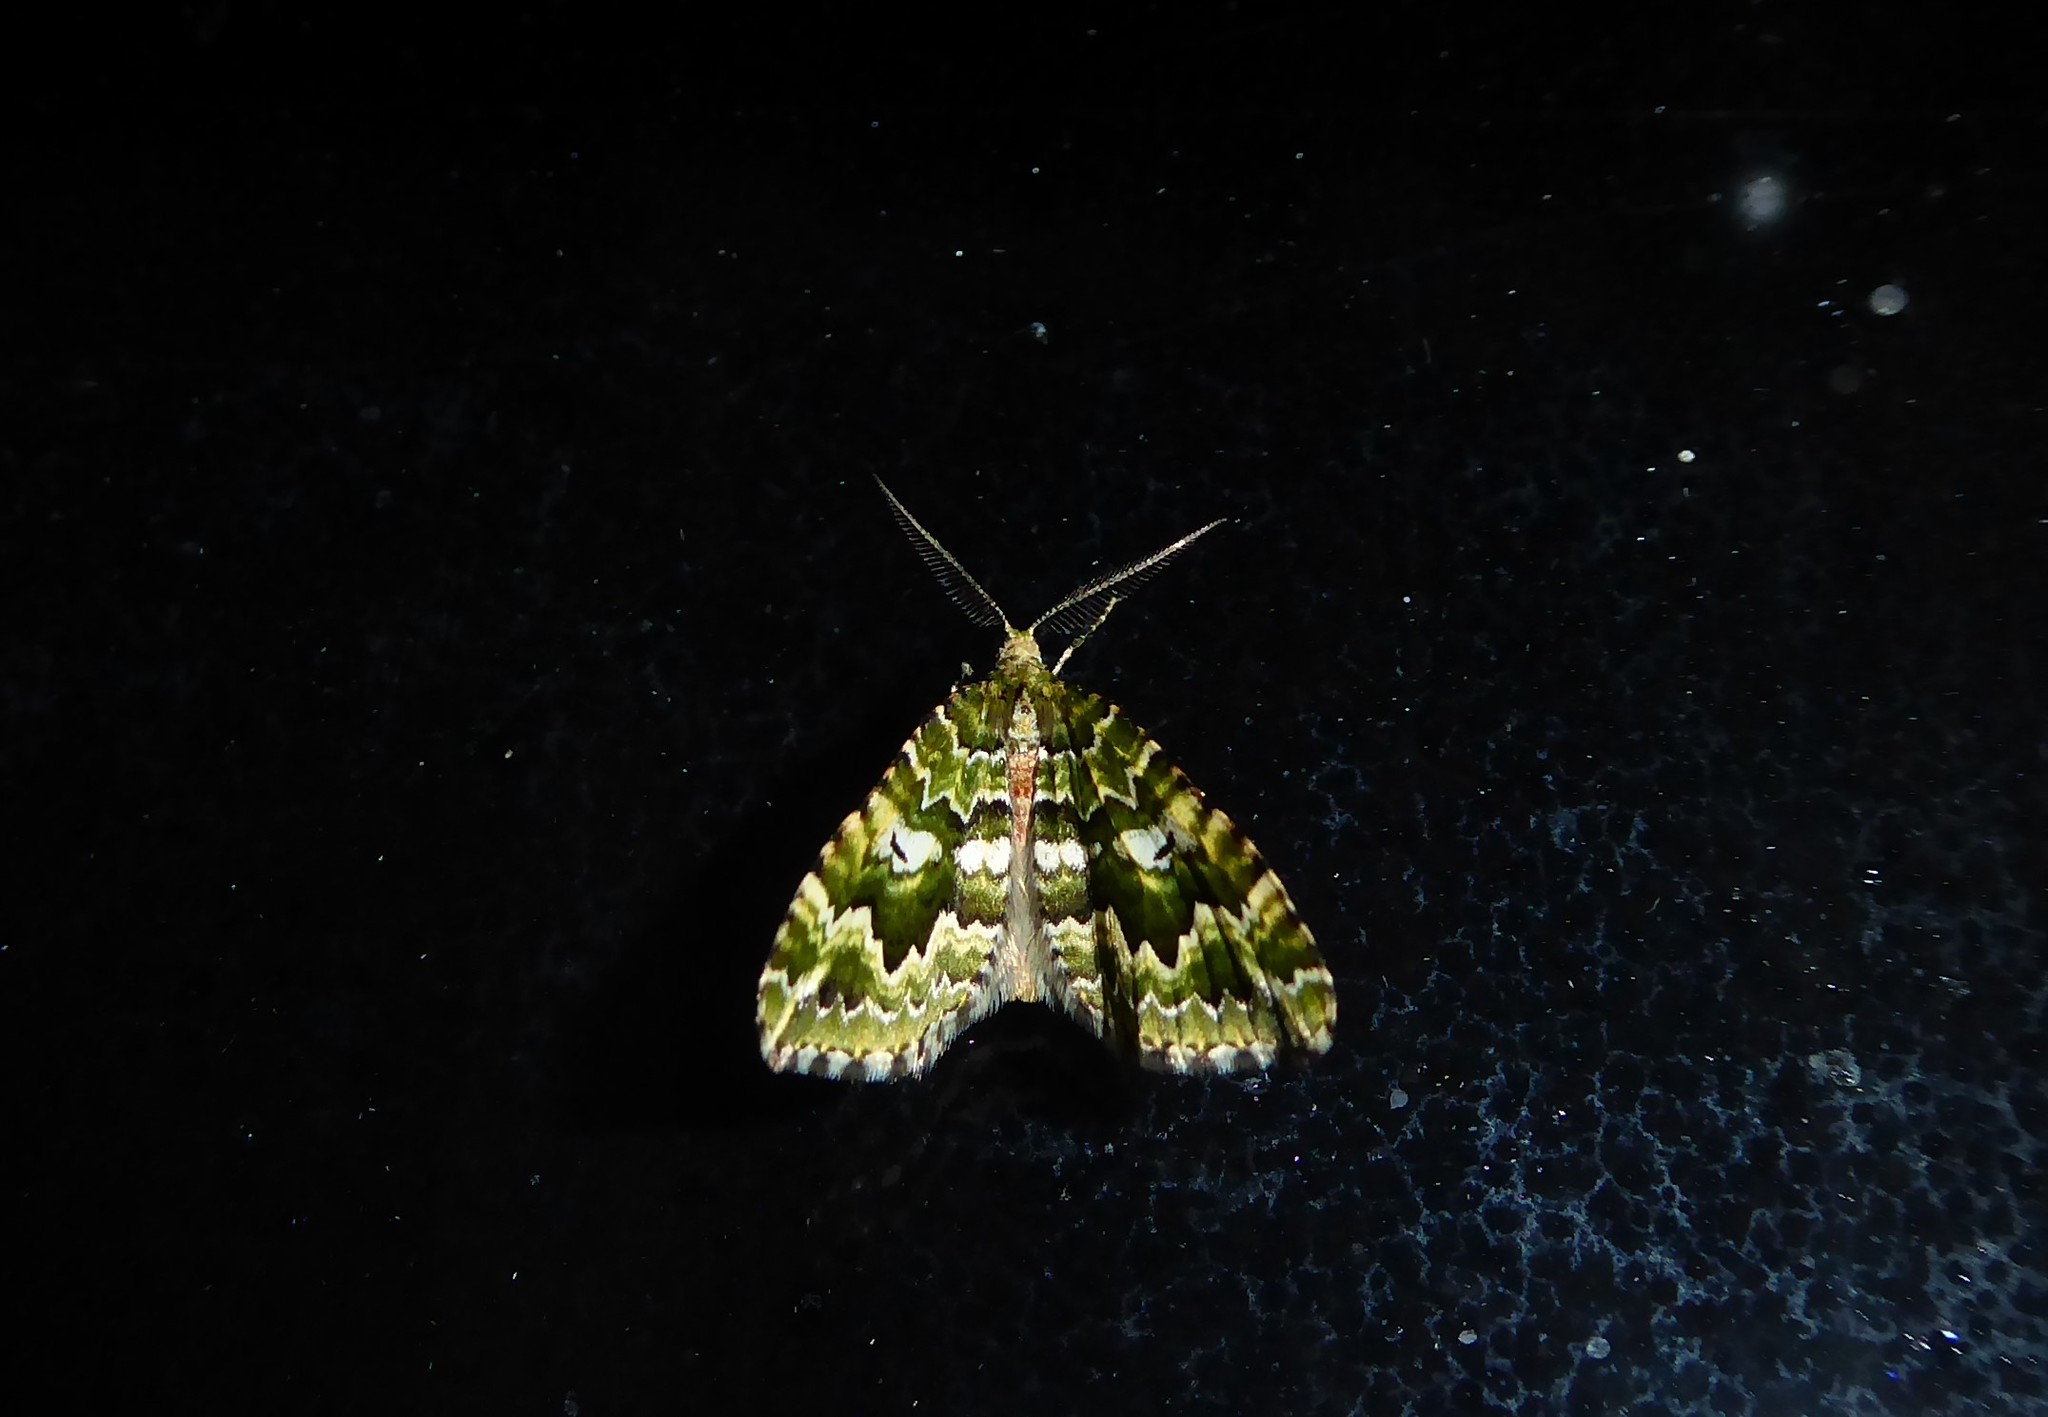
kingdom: Animalia
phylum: Arthropoda
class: Insecta
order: Lepidoptera
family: Geometridae
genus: Asaphodes
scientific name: Asaphodes beata
